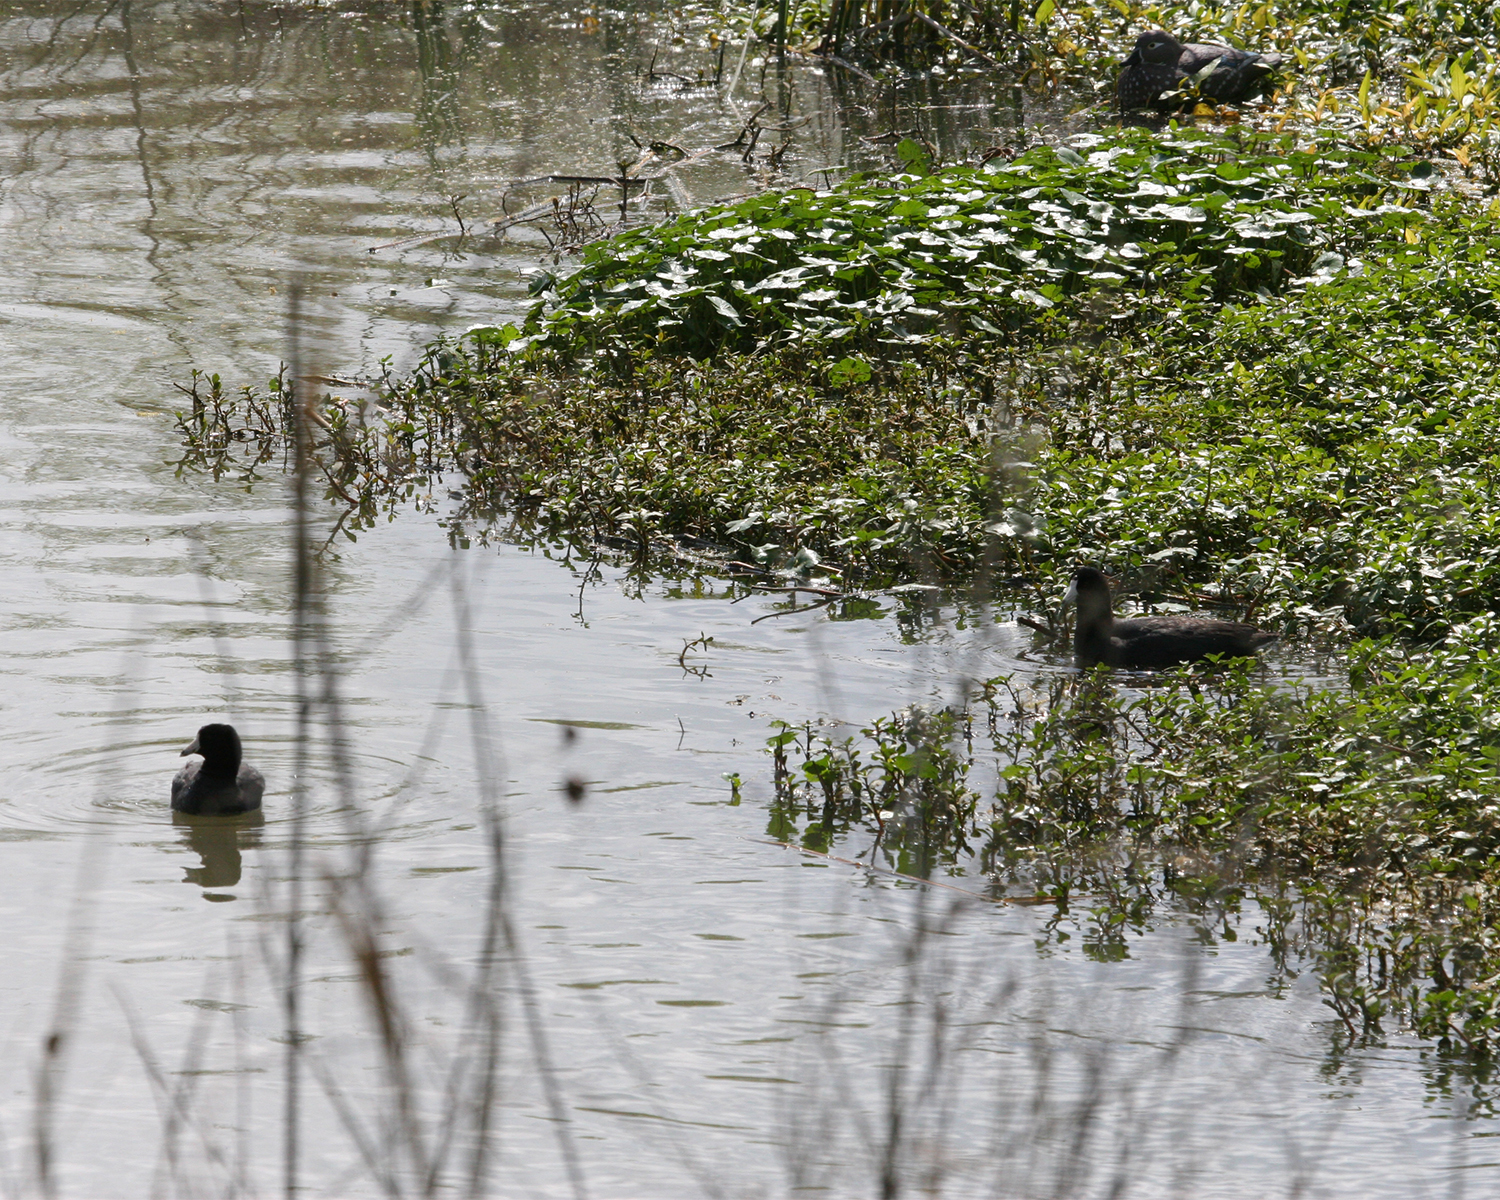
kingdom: Animalia
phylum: Chordata
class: Aves
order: Gruiformes
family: Rallidae
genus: Fulica
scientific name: Fulica americana
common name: American coot
